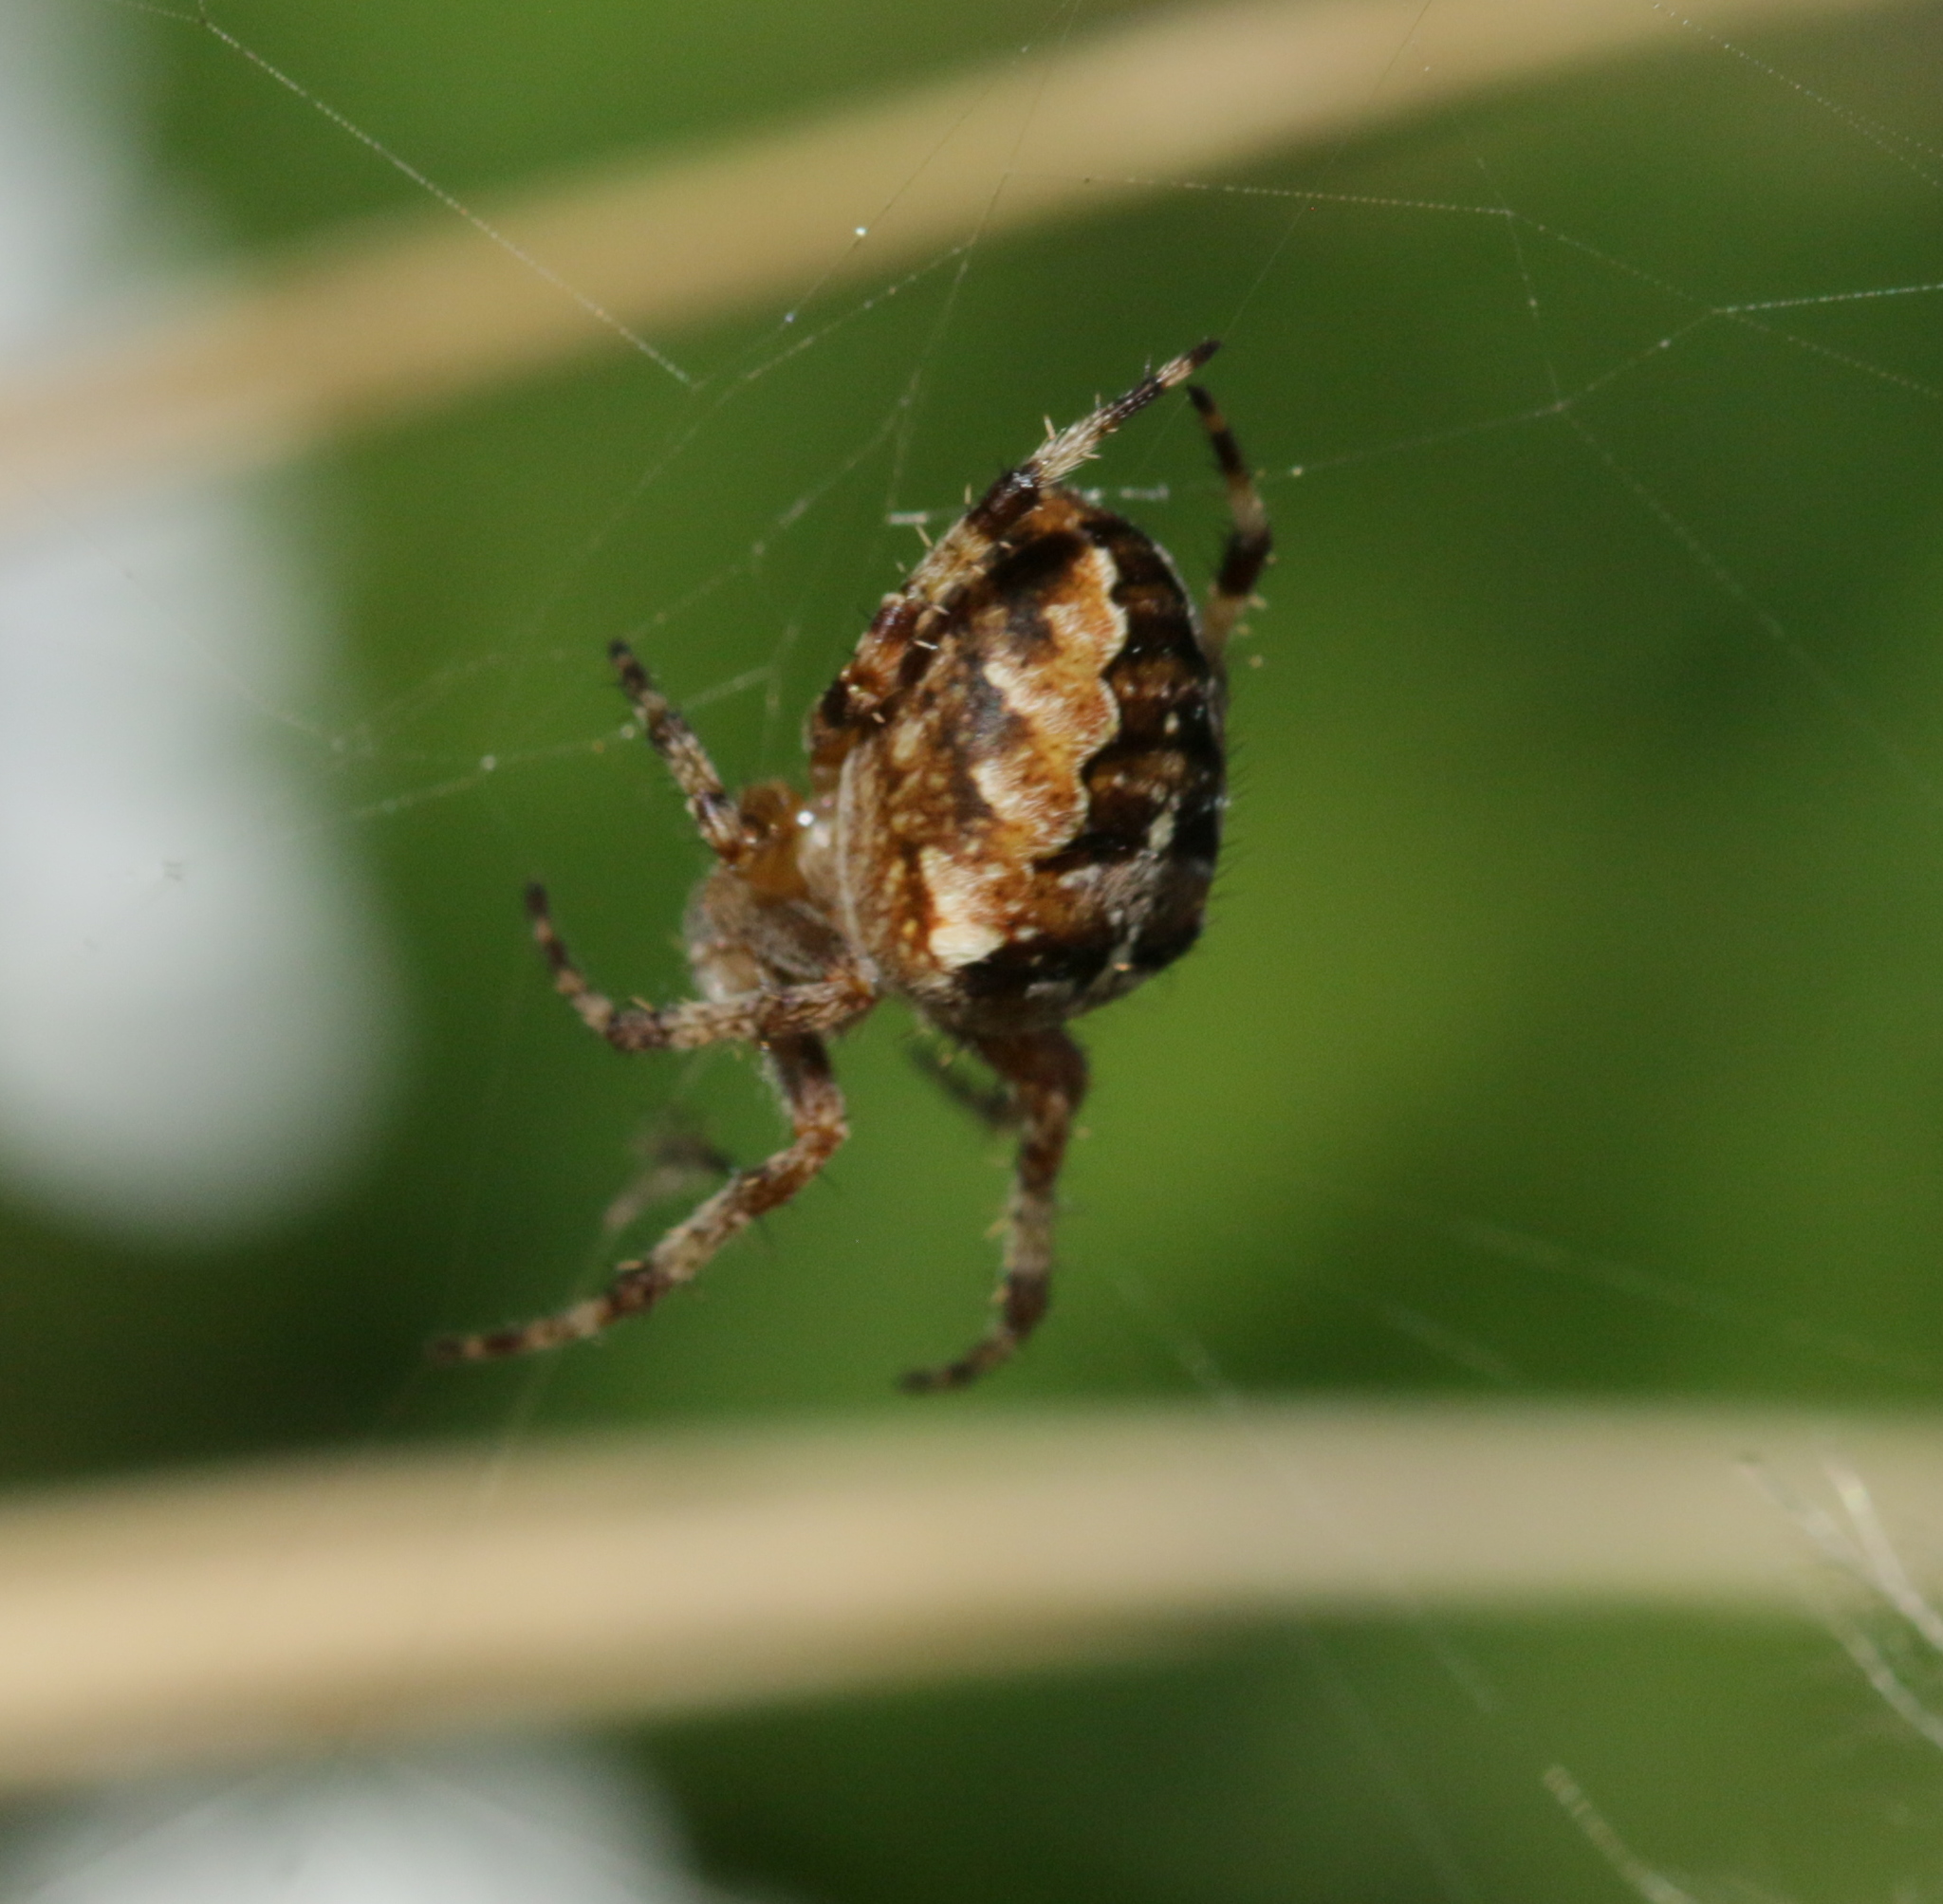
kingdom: Animalia
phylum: Arthropoda
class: Arachnida
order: Araneae
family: Araneidae
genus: Araneus
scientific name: Araneus diadematus
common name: Cross orbweaver
